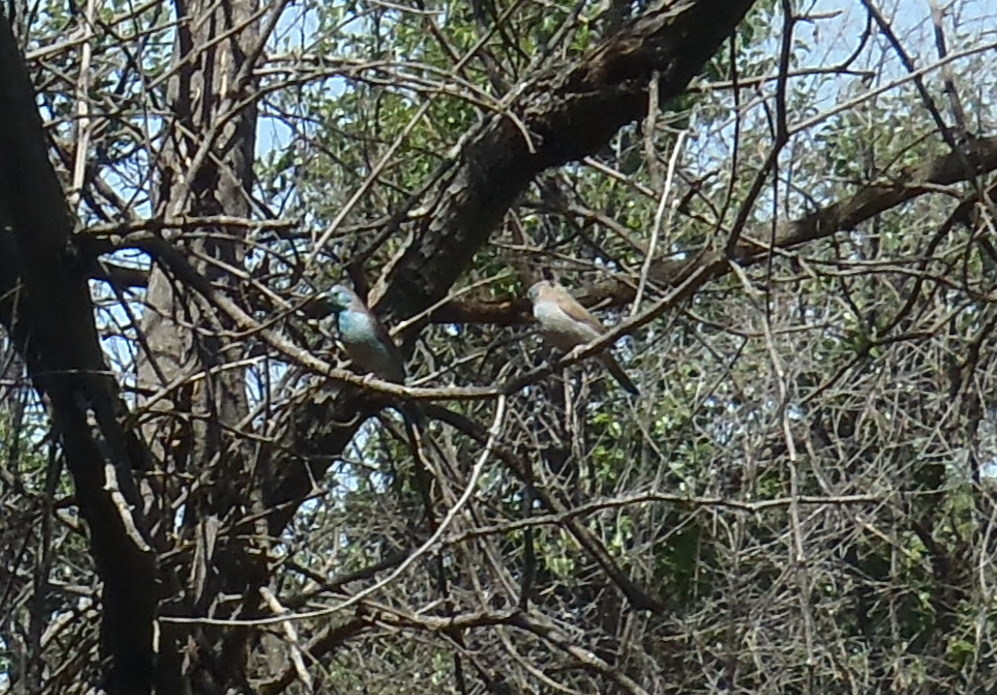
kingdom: Animalia
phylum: Chordata
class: Aves
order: Passeriformes
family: Estrildidae
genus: Uraeginthus
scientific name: Uraeginthus angolensis
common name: Blue waxbill
